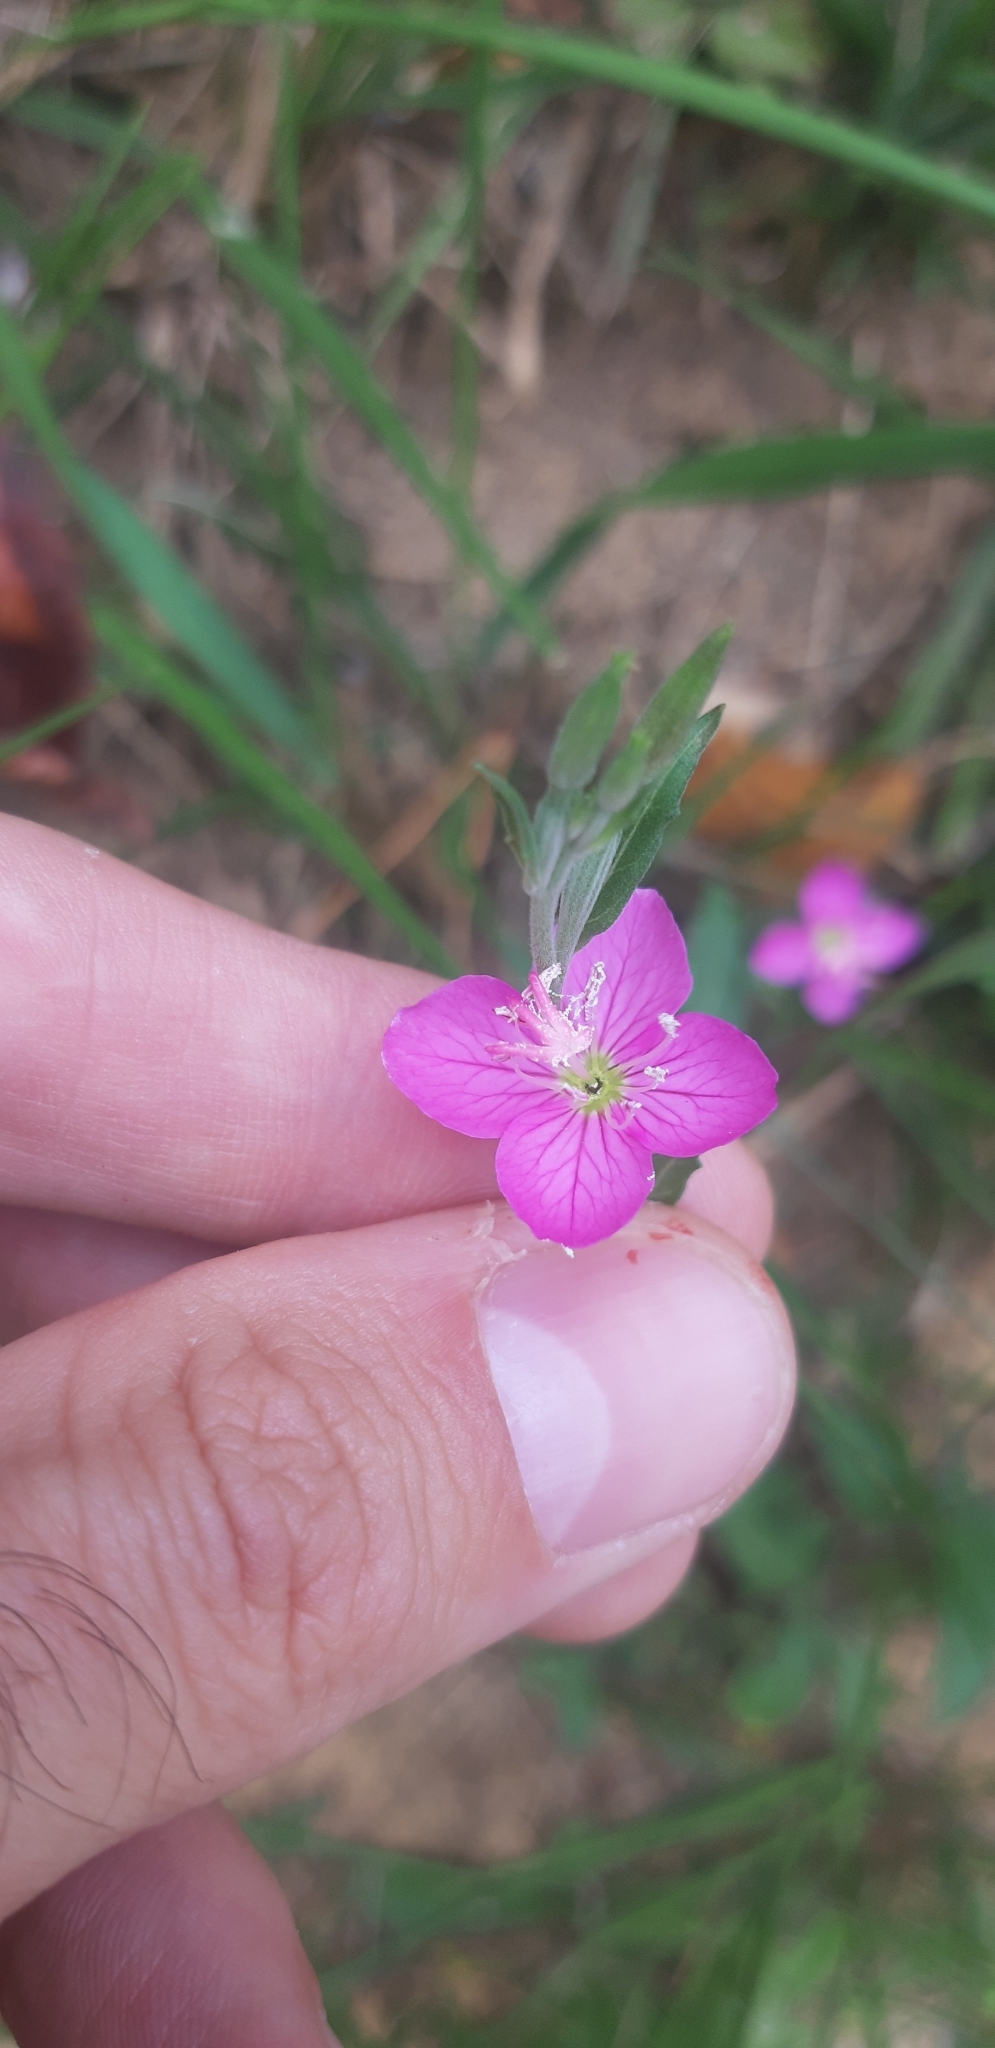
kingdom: Plantae
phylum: Tracheophyta
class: Magnoliopsida
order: Myrtales
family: Onagraceae
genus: Oenothera
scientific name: Oenothera rosea
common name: Rosy evening-primrose
